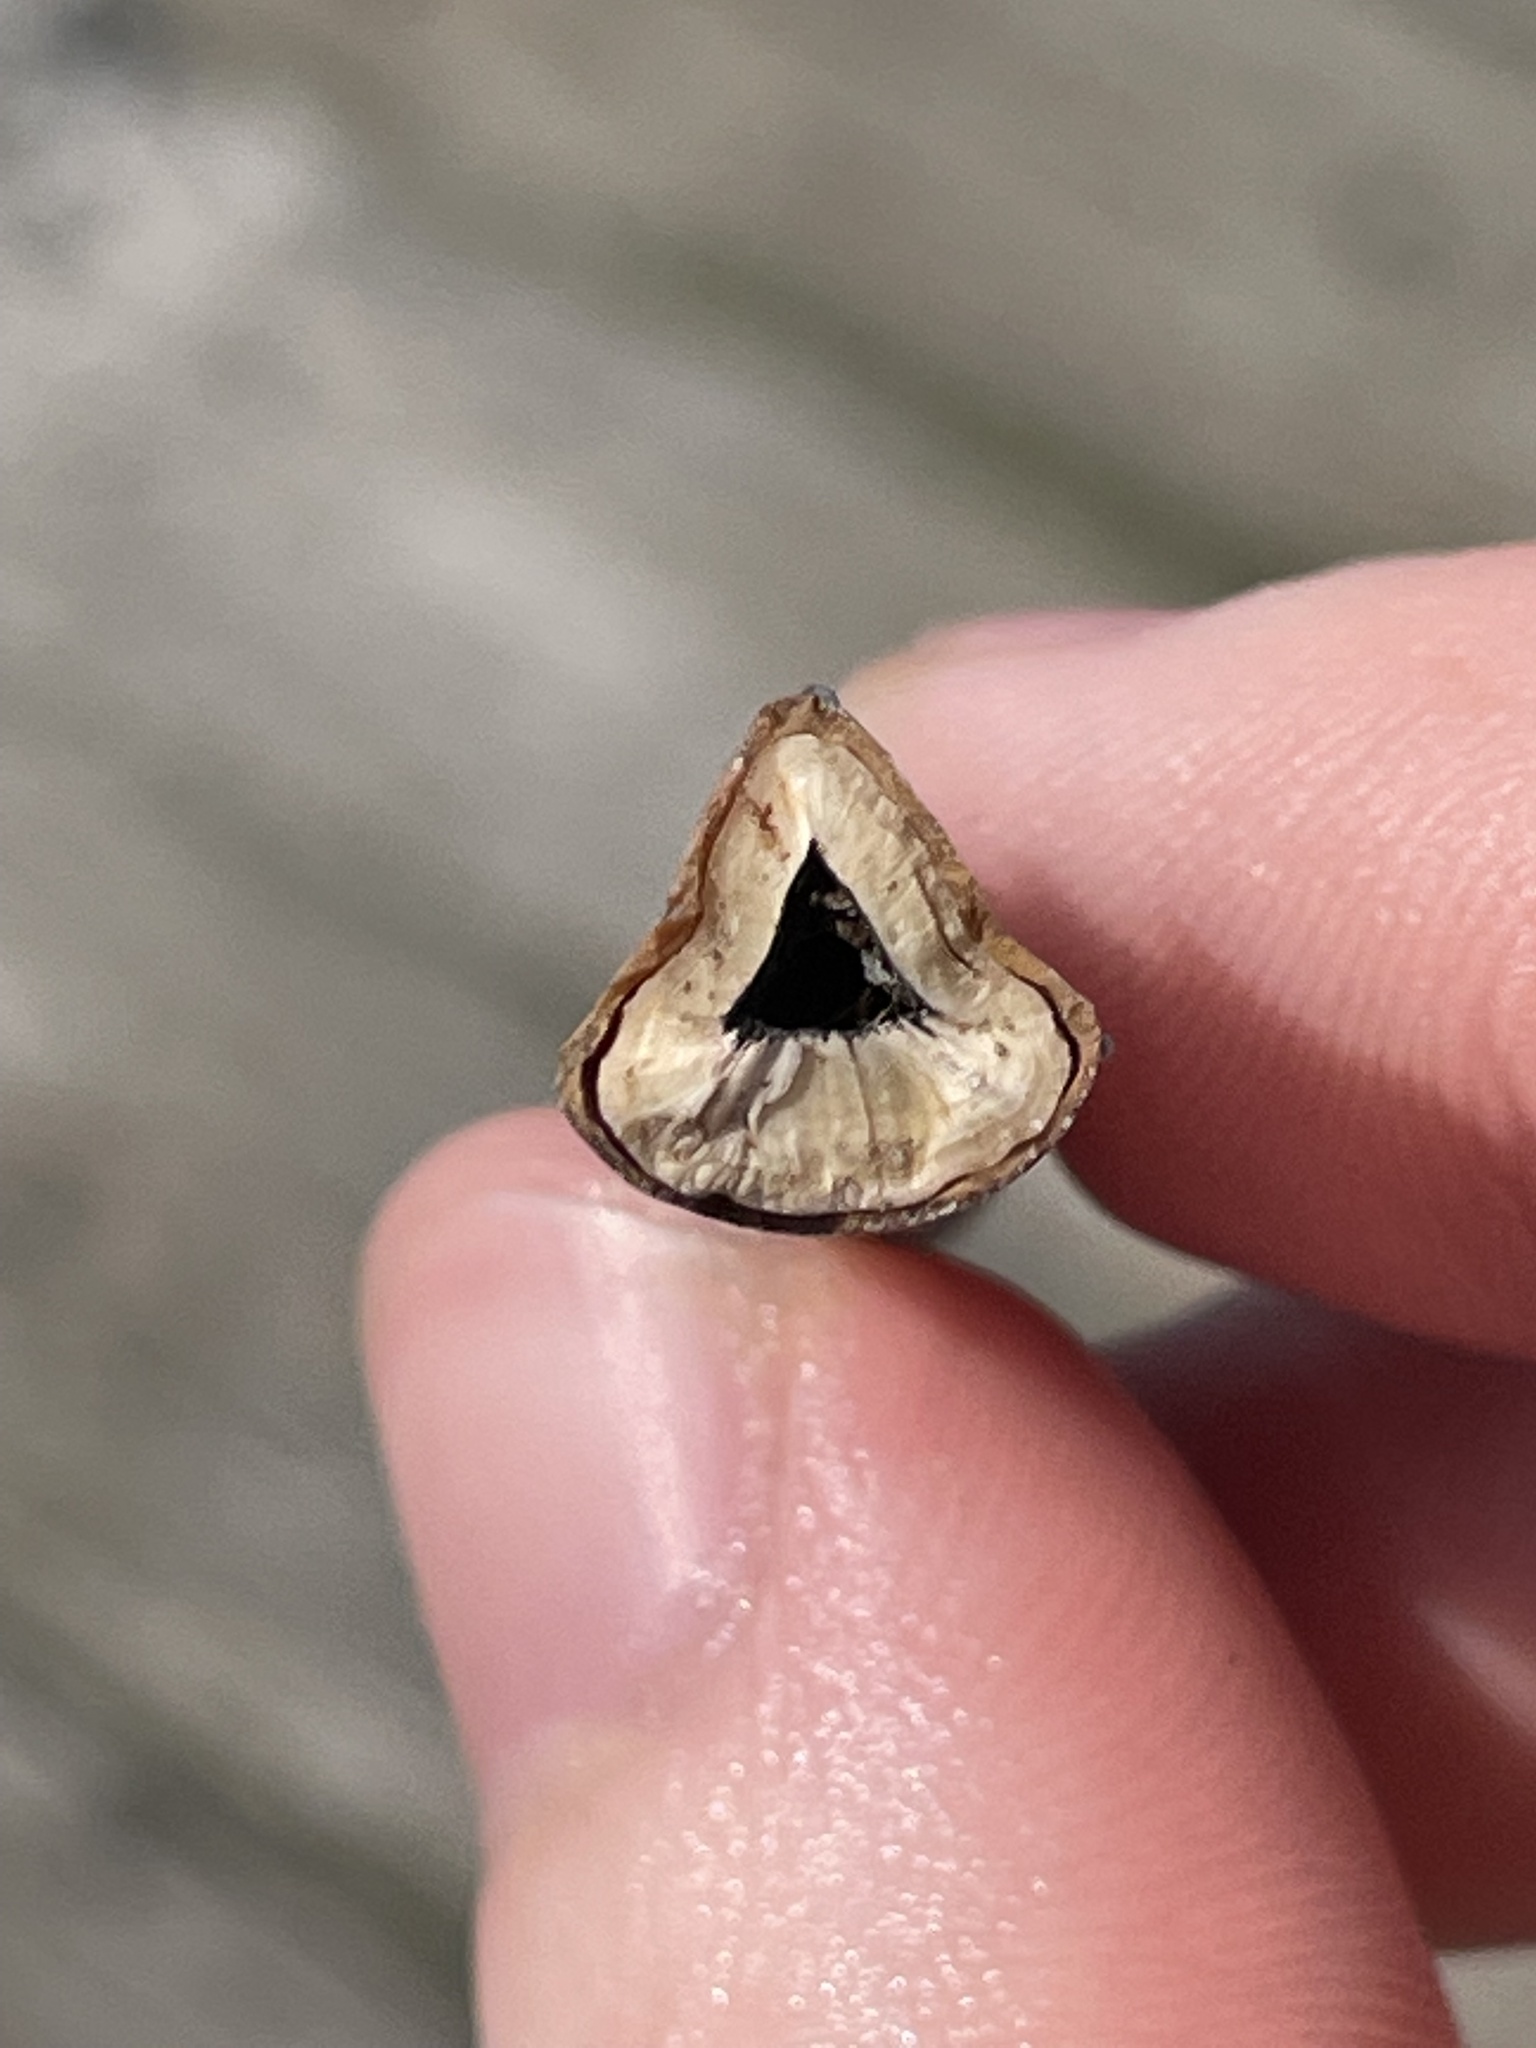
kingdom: Animalia
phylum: Arthropoda
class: Merostomata
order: Xiphosurida
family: Limulidae
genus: Limulus
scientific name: Limulus polyphemus
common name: Horseshoe crab
